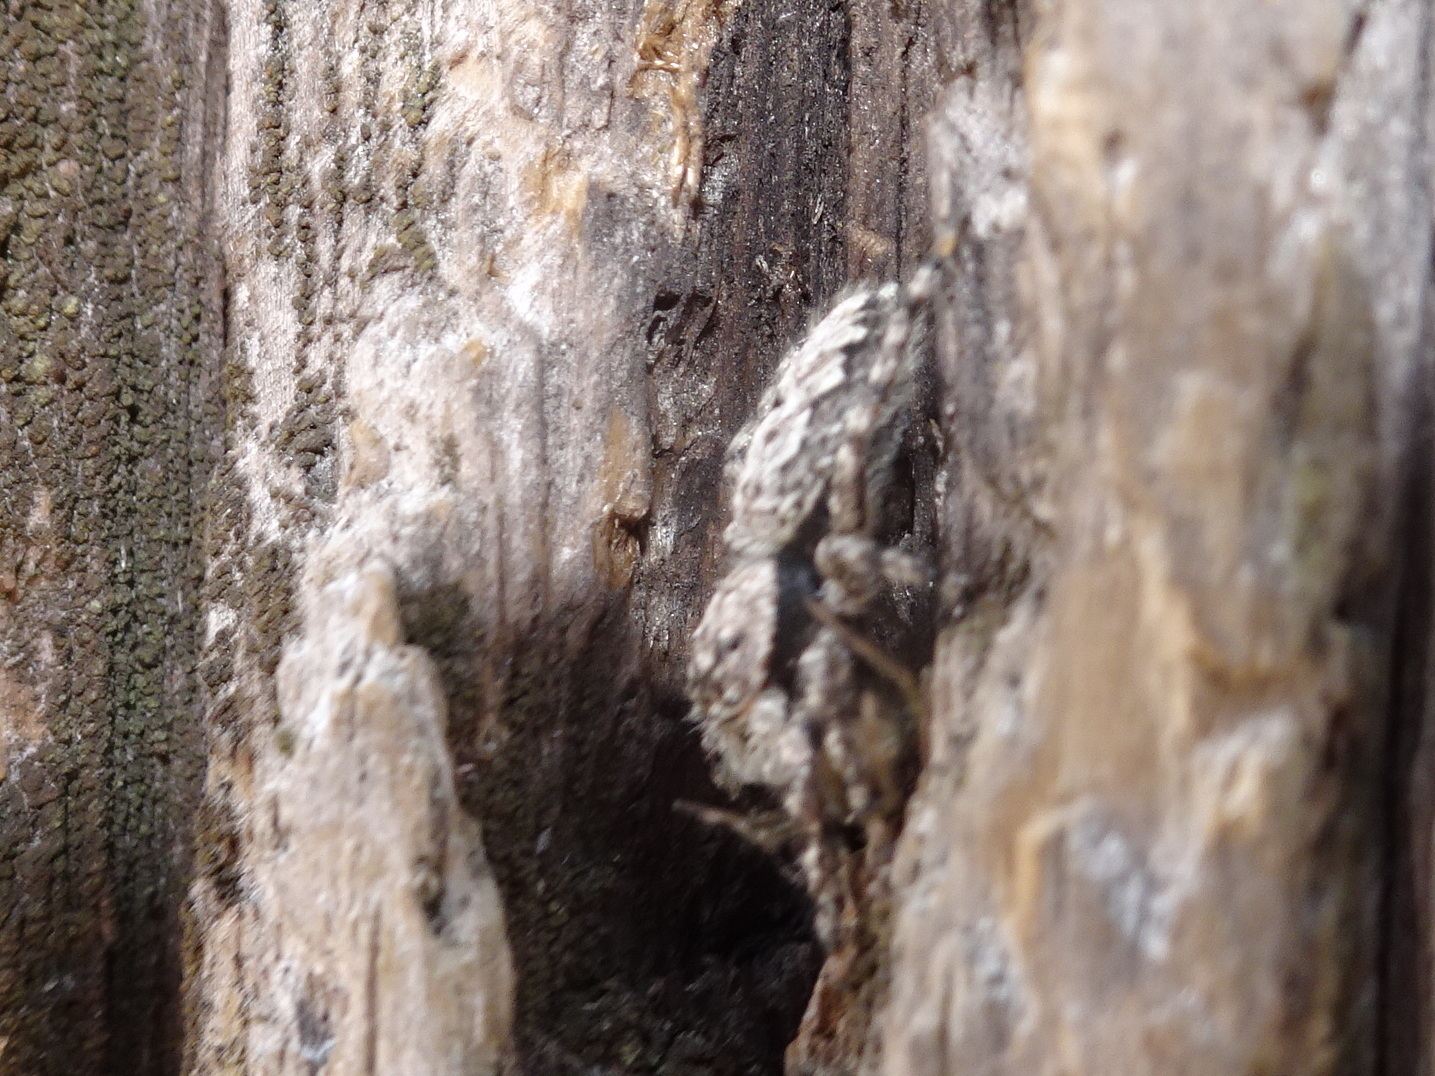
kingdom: Animalia
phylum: Arthropoda
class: Arachnida
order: Araneae
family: Salticidae
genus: Platycryptus
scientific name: Platycryptus undatus
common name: Tan jumping spider
